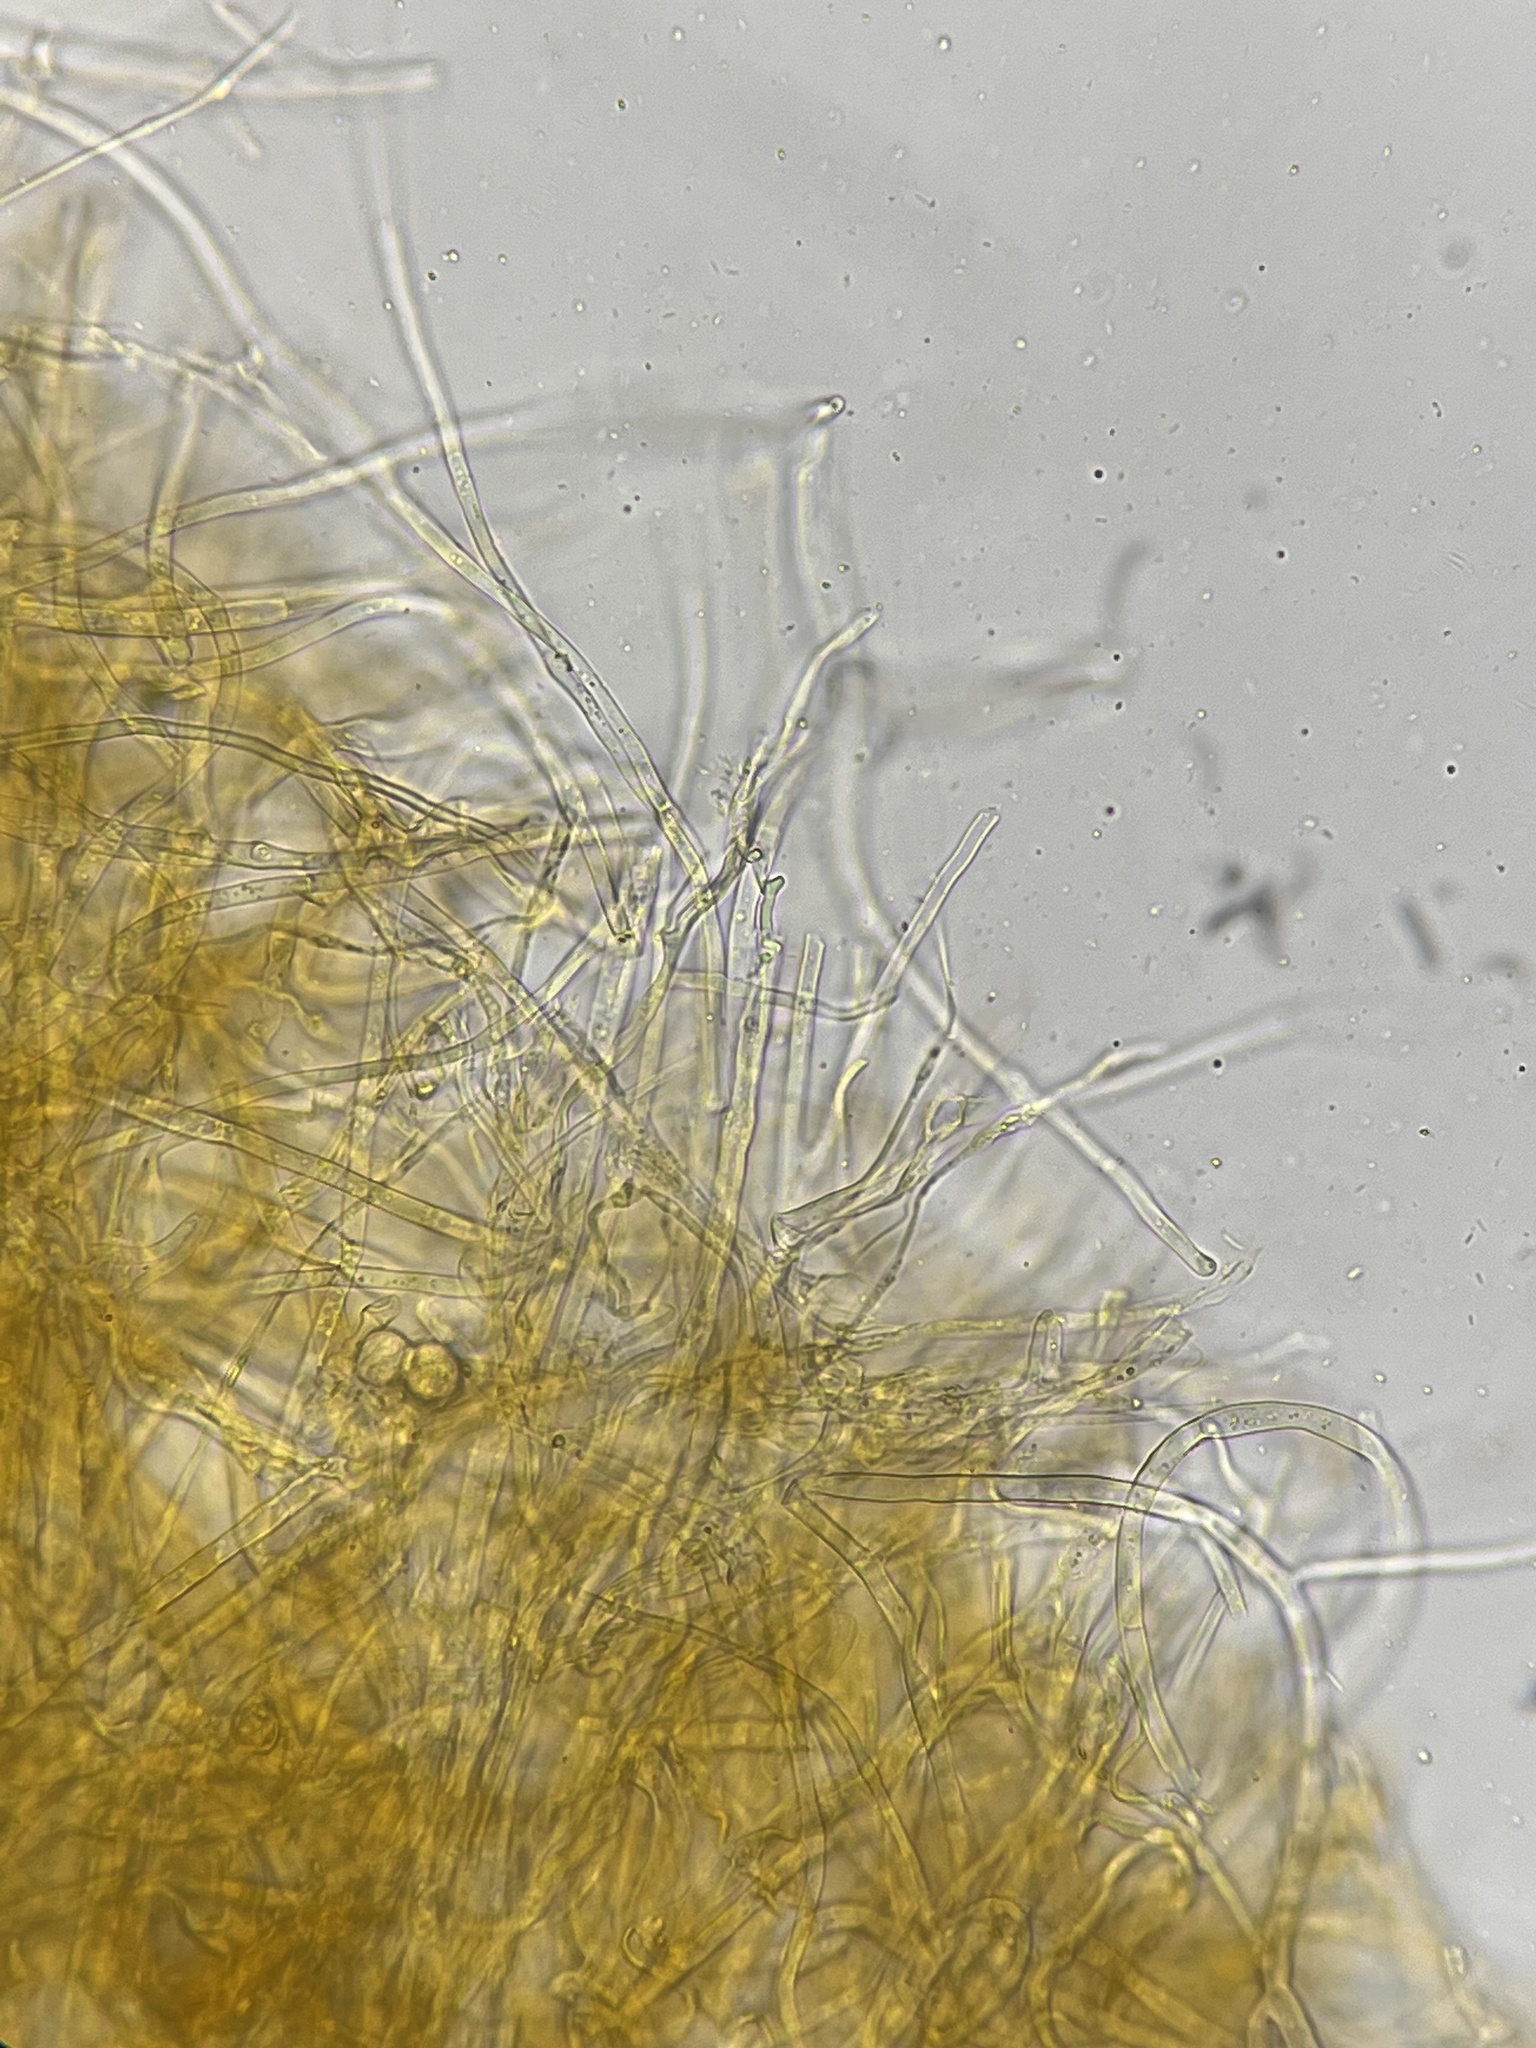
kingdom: Fungi
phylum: Ascomycota
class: Sordariomycetes
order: Hypocreales
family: Hypocreaceae
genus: Hypomyces
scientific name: Hypomyces aurantius
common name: Orange polypore mould
